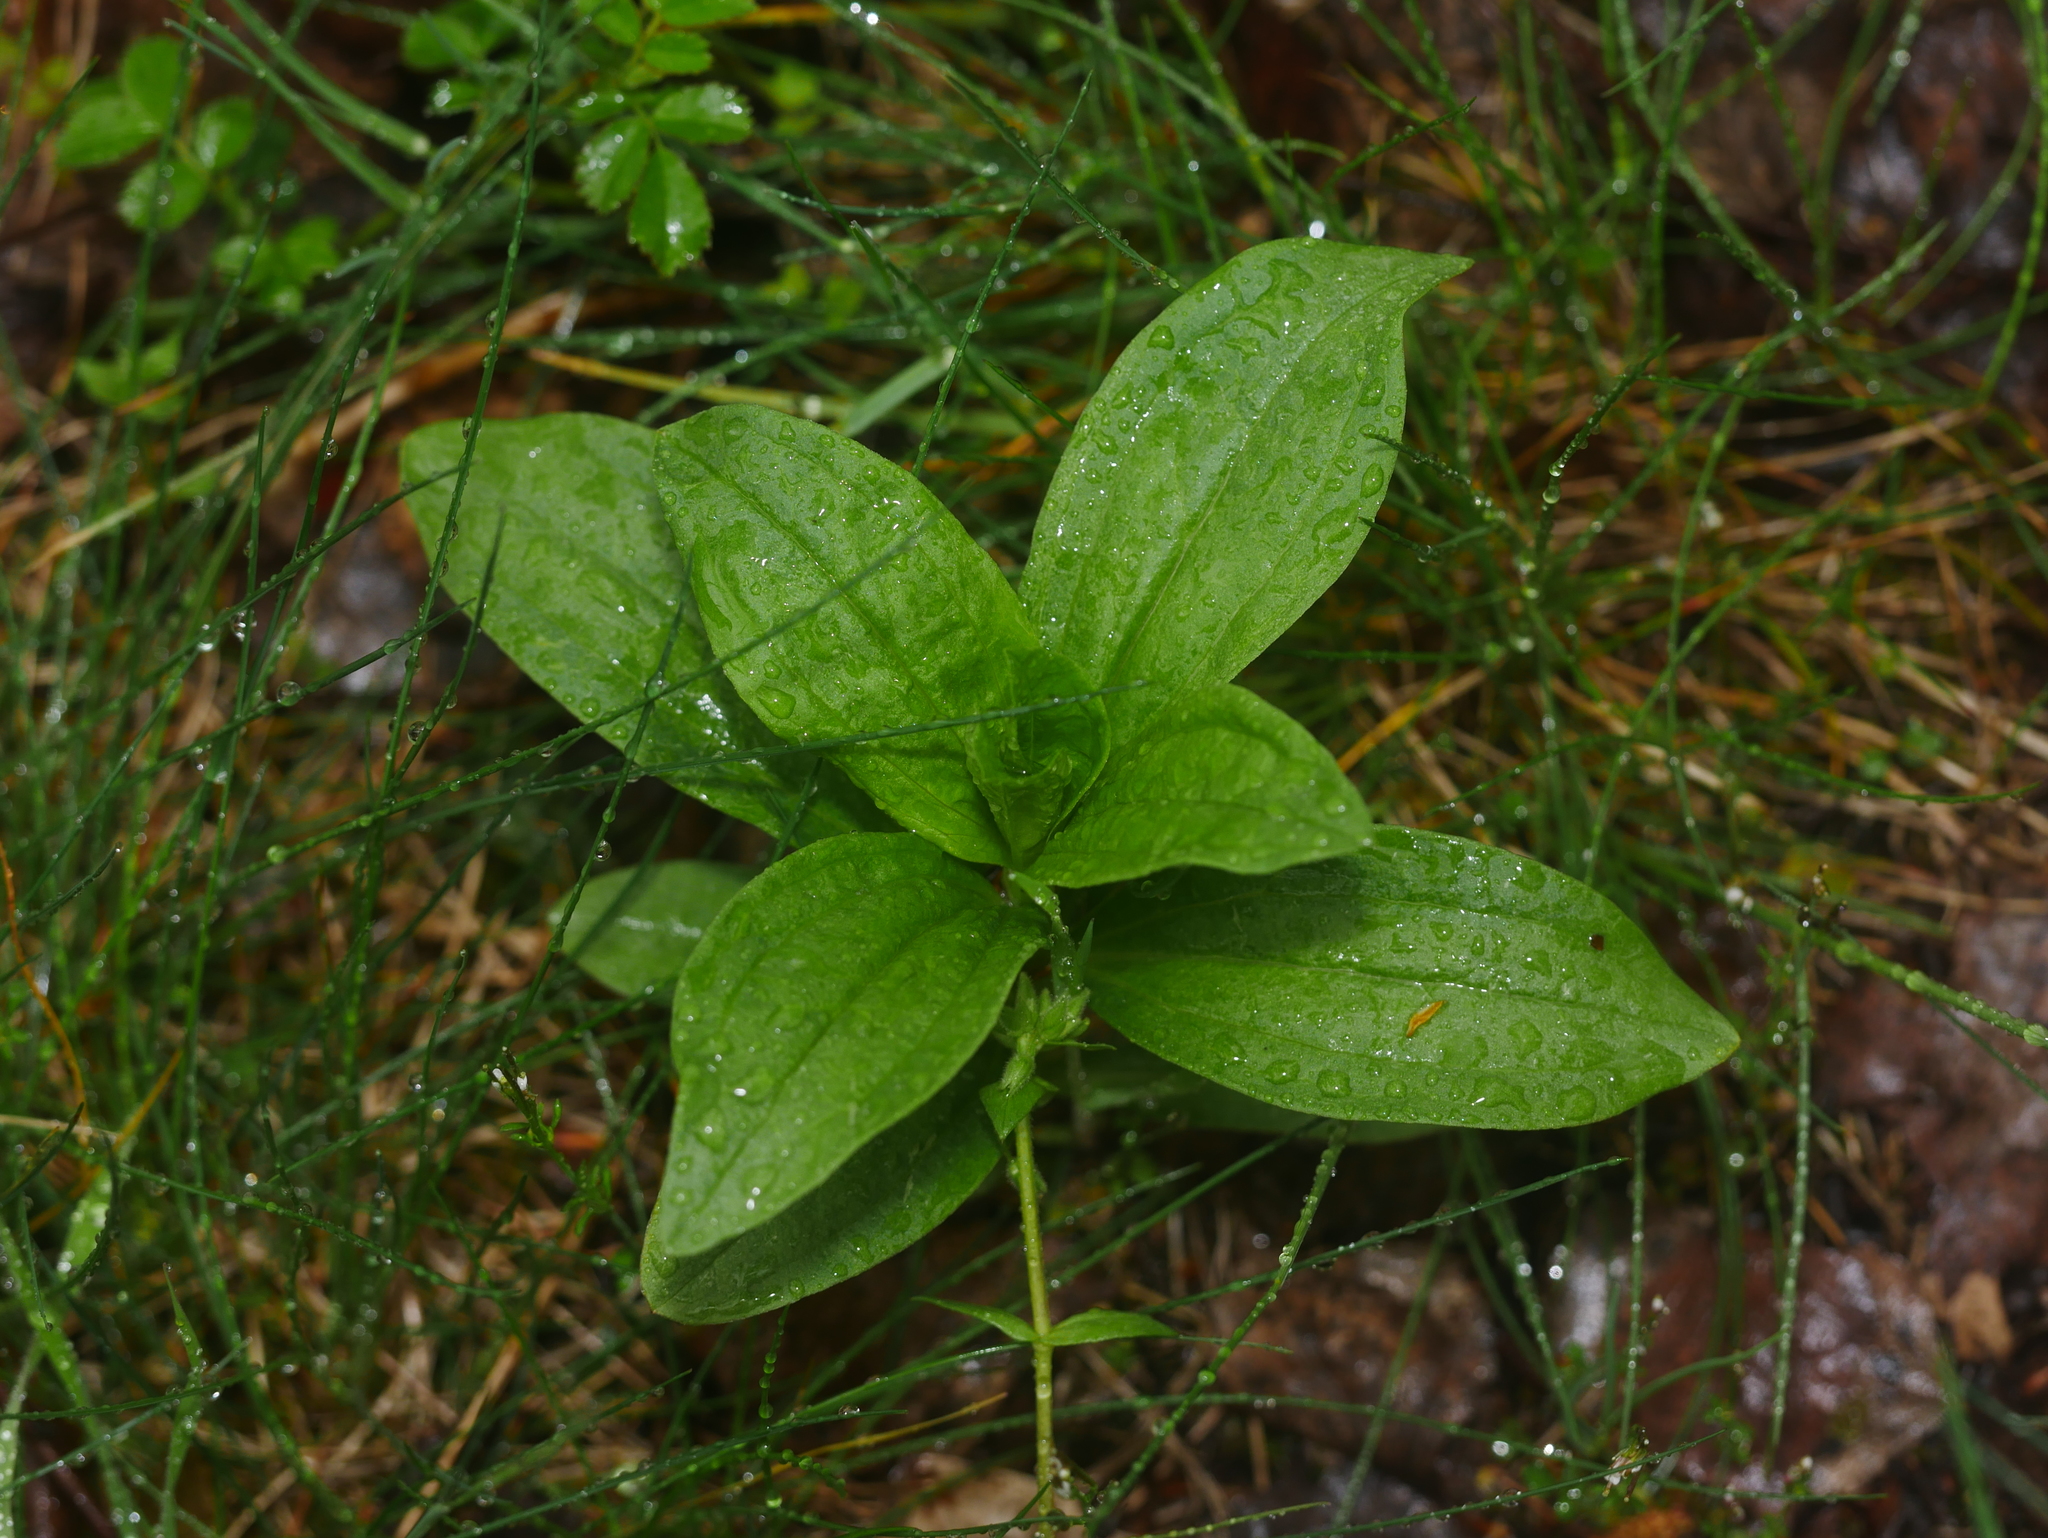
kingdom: Plantae
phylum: Tracheophyta
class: Magnoliopsida
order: Caryophyllales
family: Caryophyllaceae
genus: Saponaria
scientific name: Saponaria officinalis
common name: Soapwort
